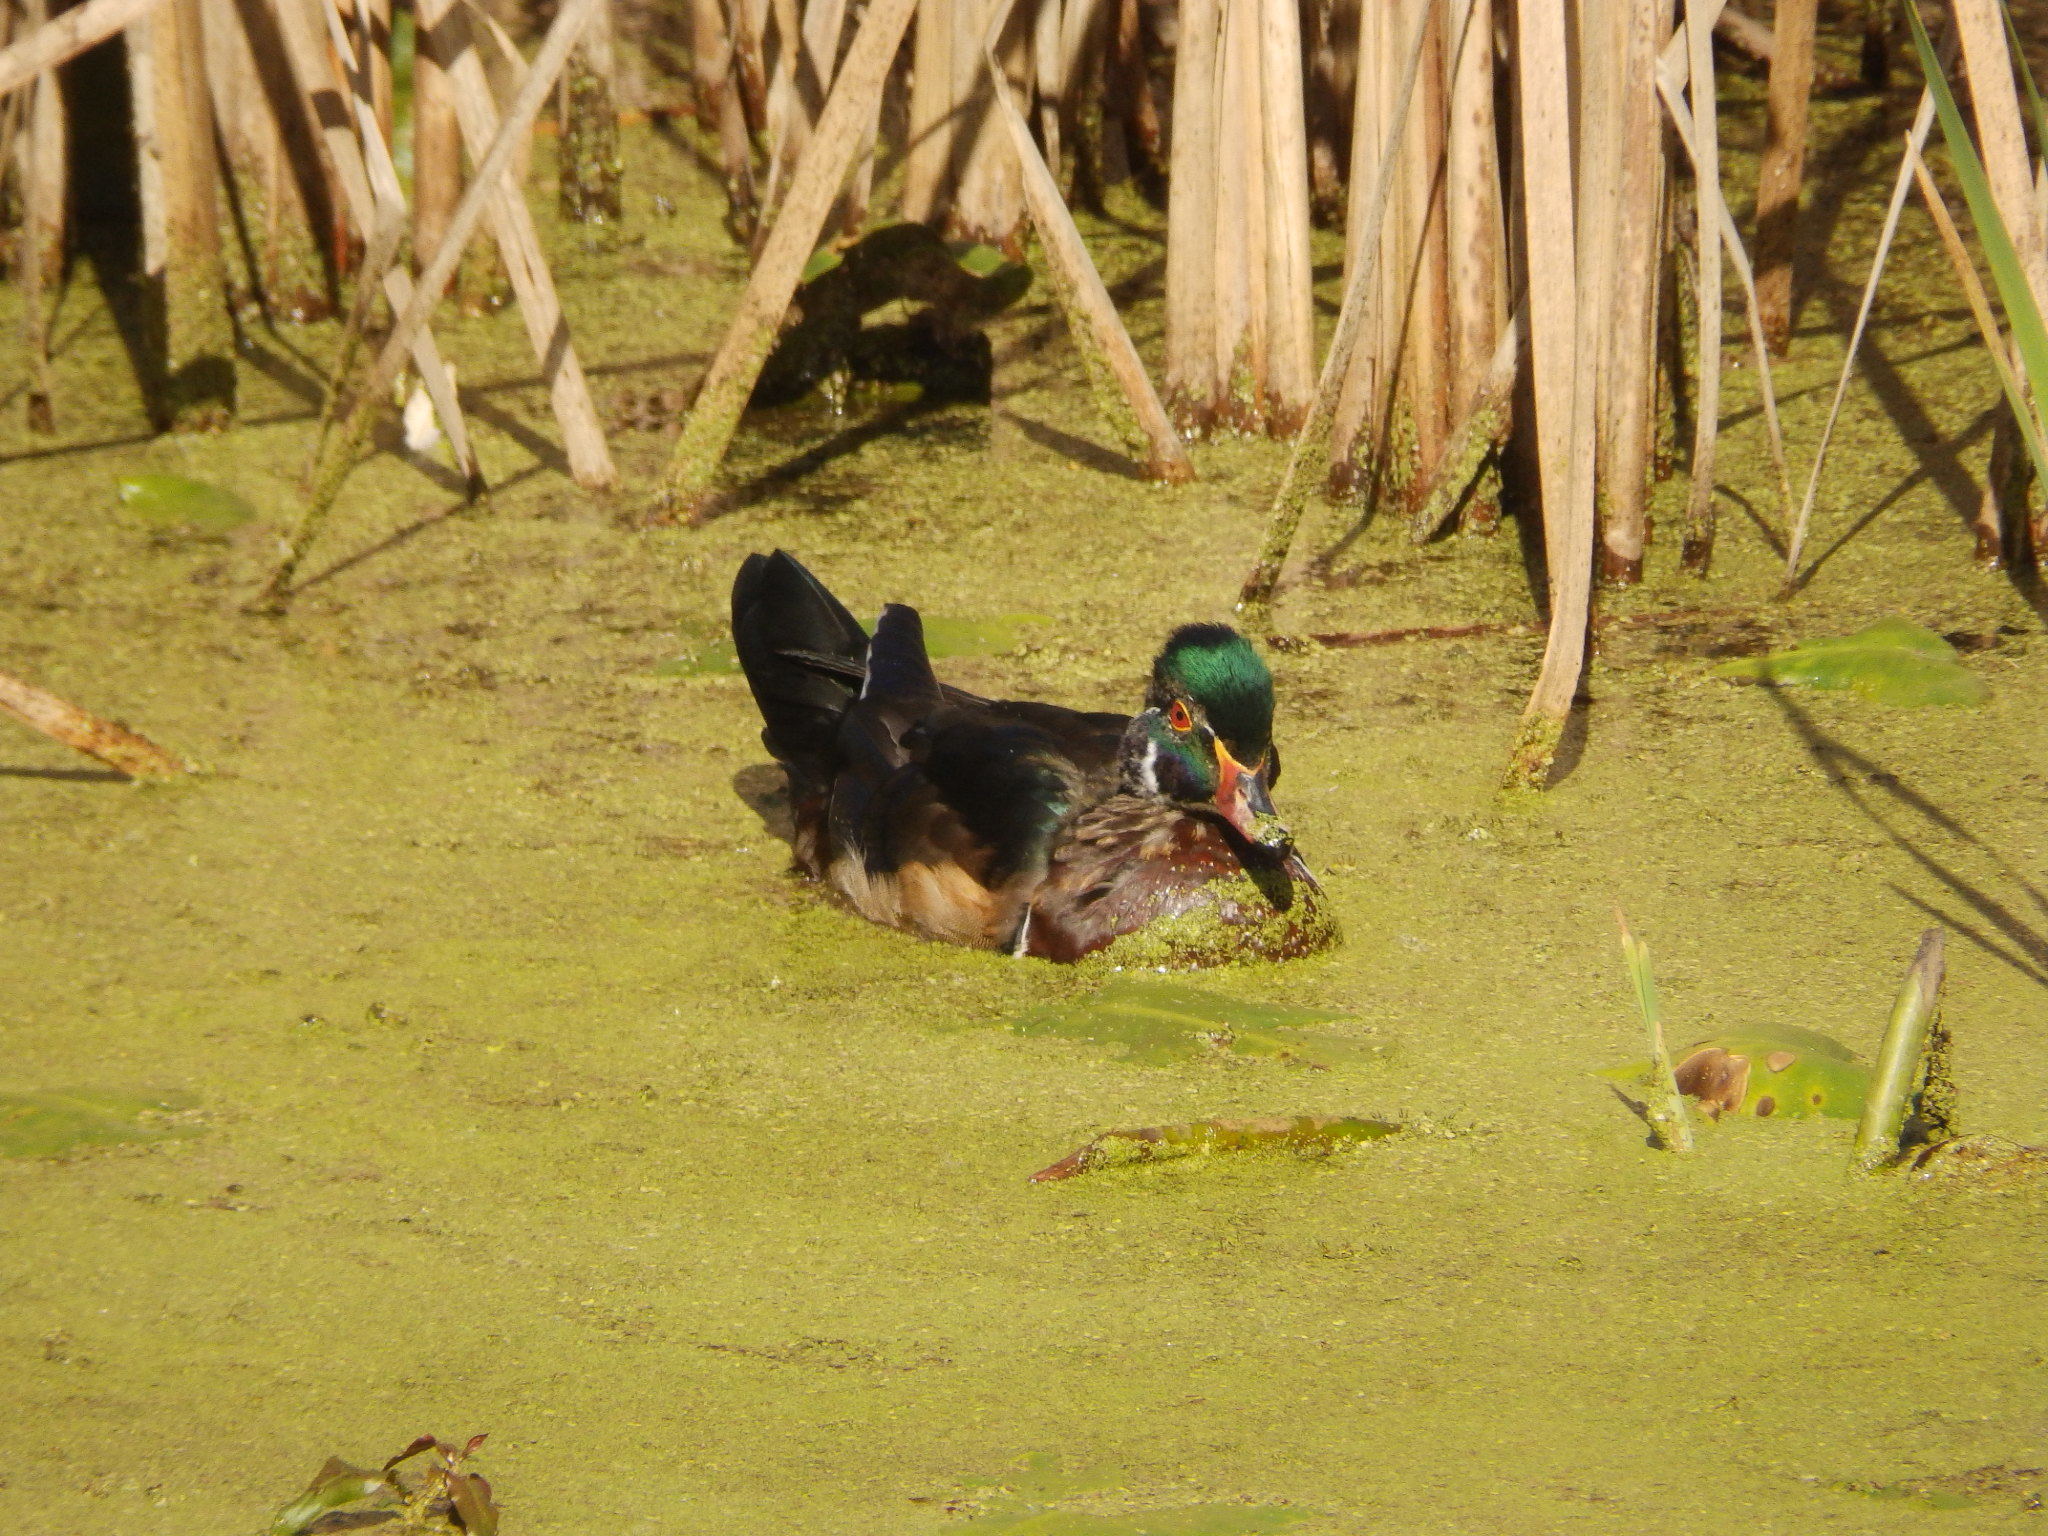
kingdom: Animalia
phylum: Chordata
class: Aves
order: Anseriformes
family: Anatidae
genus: Aix
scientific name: Aix sponsa
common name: Wood duck
